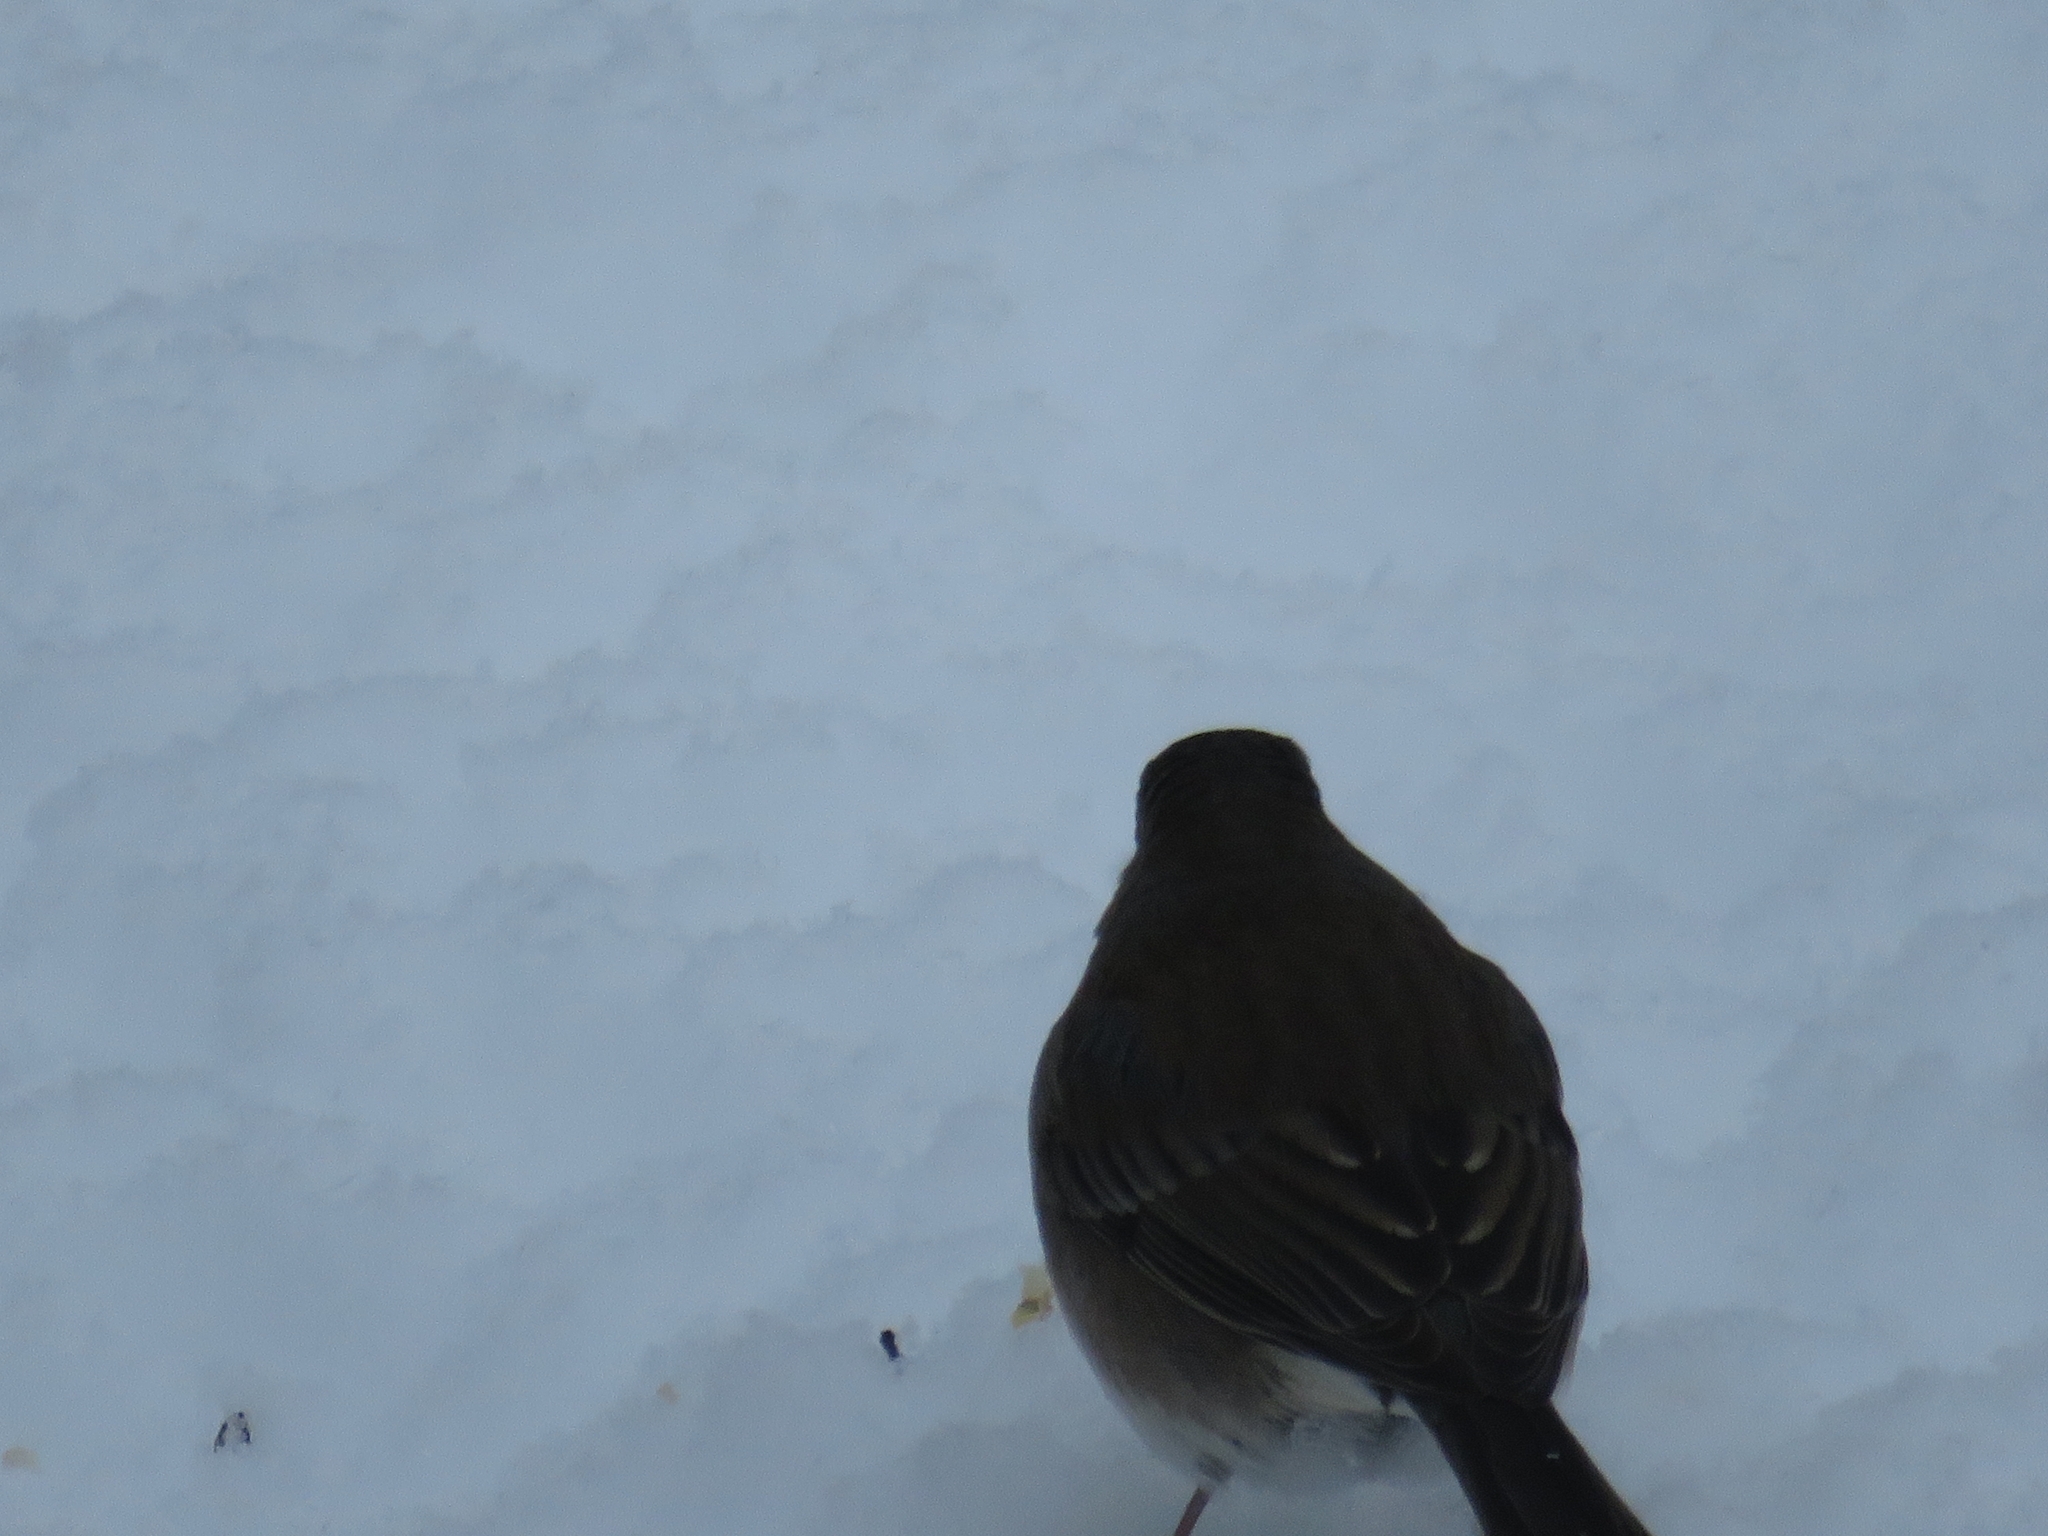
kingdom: Animalia
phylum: Chordata
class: Aves
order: Passeriformes
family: Passerellidae
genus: Junco
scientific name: Junco hyemalis
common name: Dark-eyed junco
